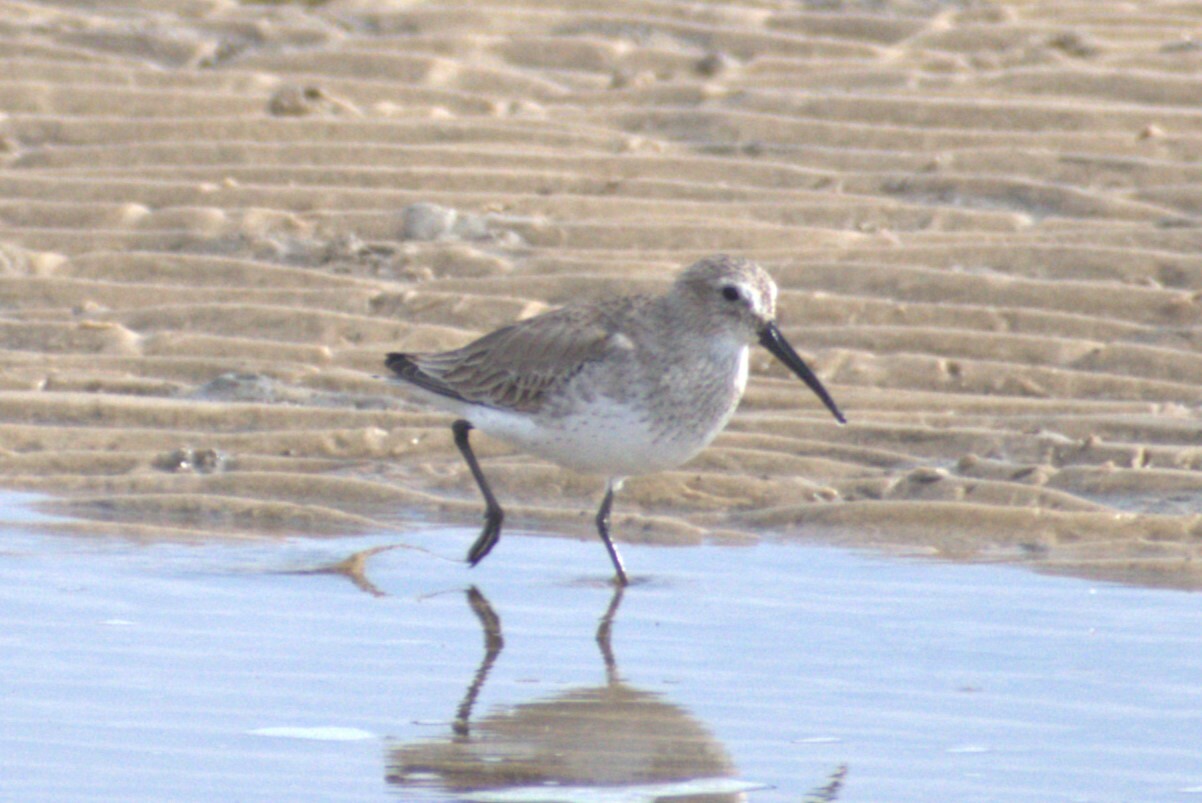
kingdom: Animalia
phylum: Chordata
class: Aves
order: Charadriiformes
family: Scolopacidae
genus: Calidris
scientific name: Calidris alpina
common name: Dunlin
